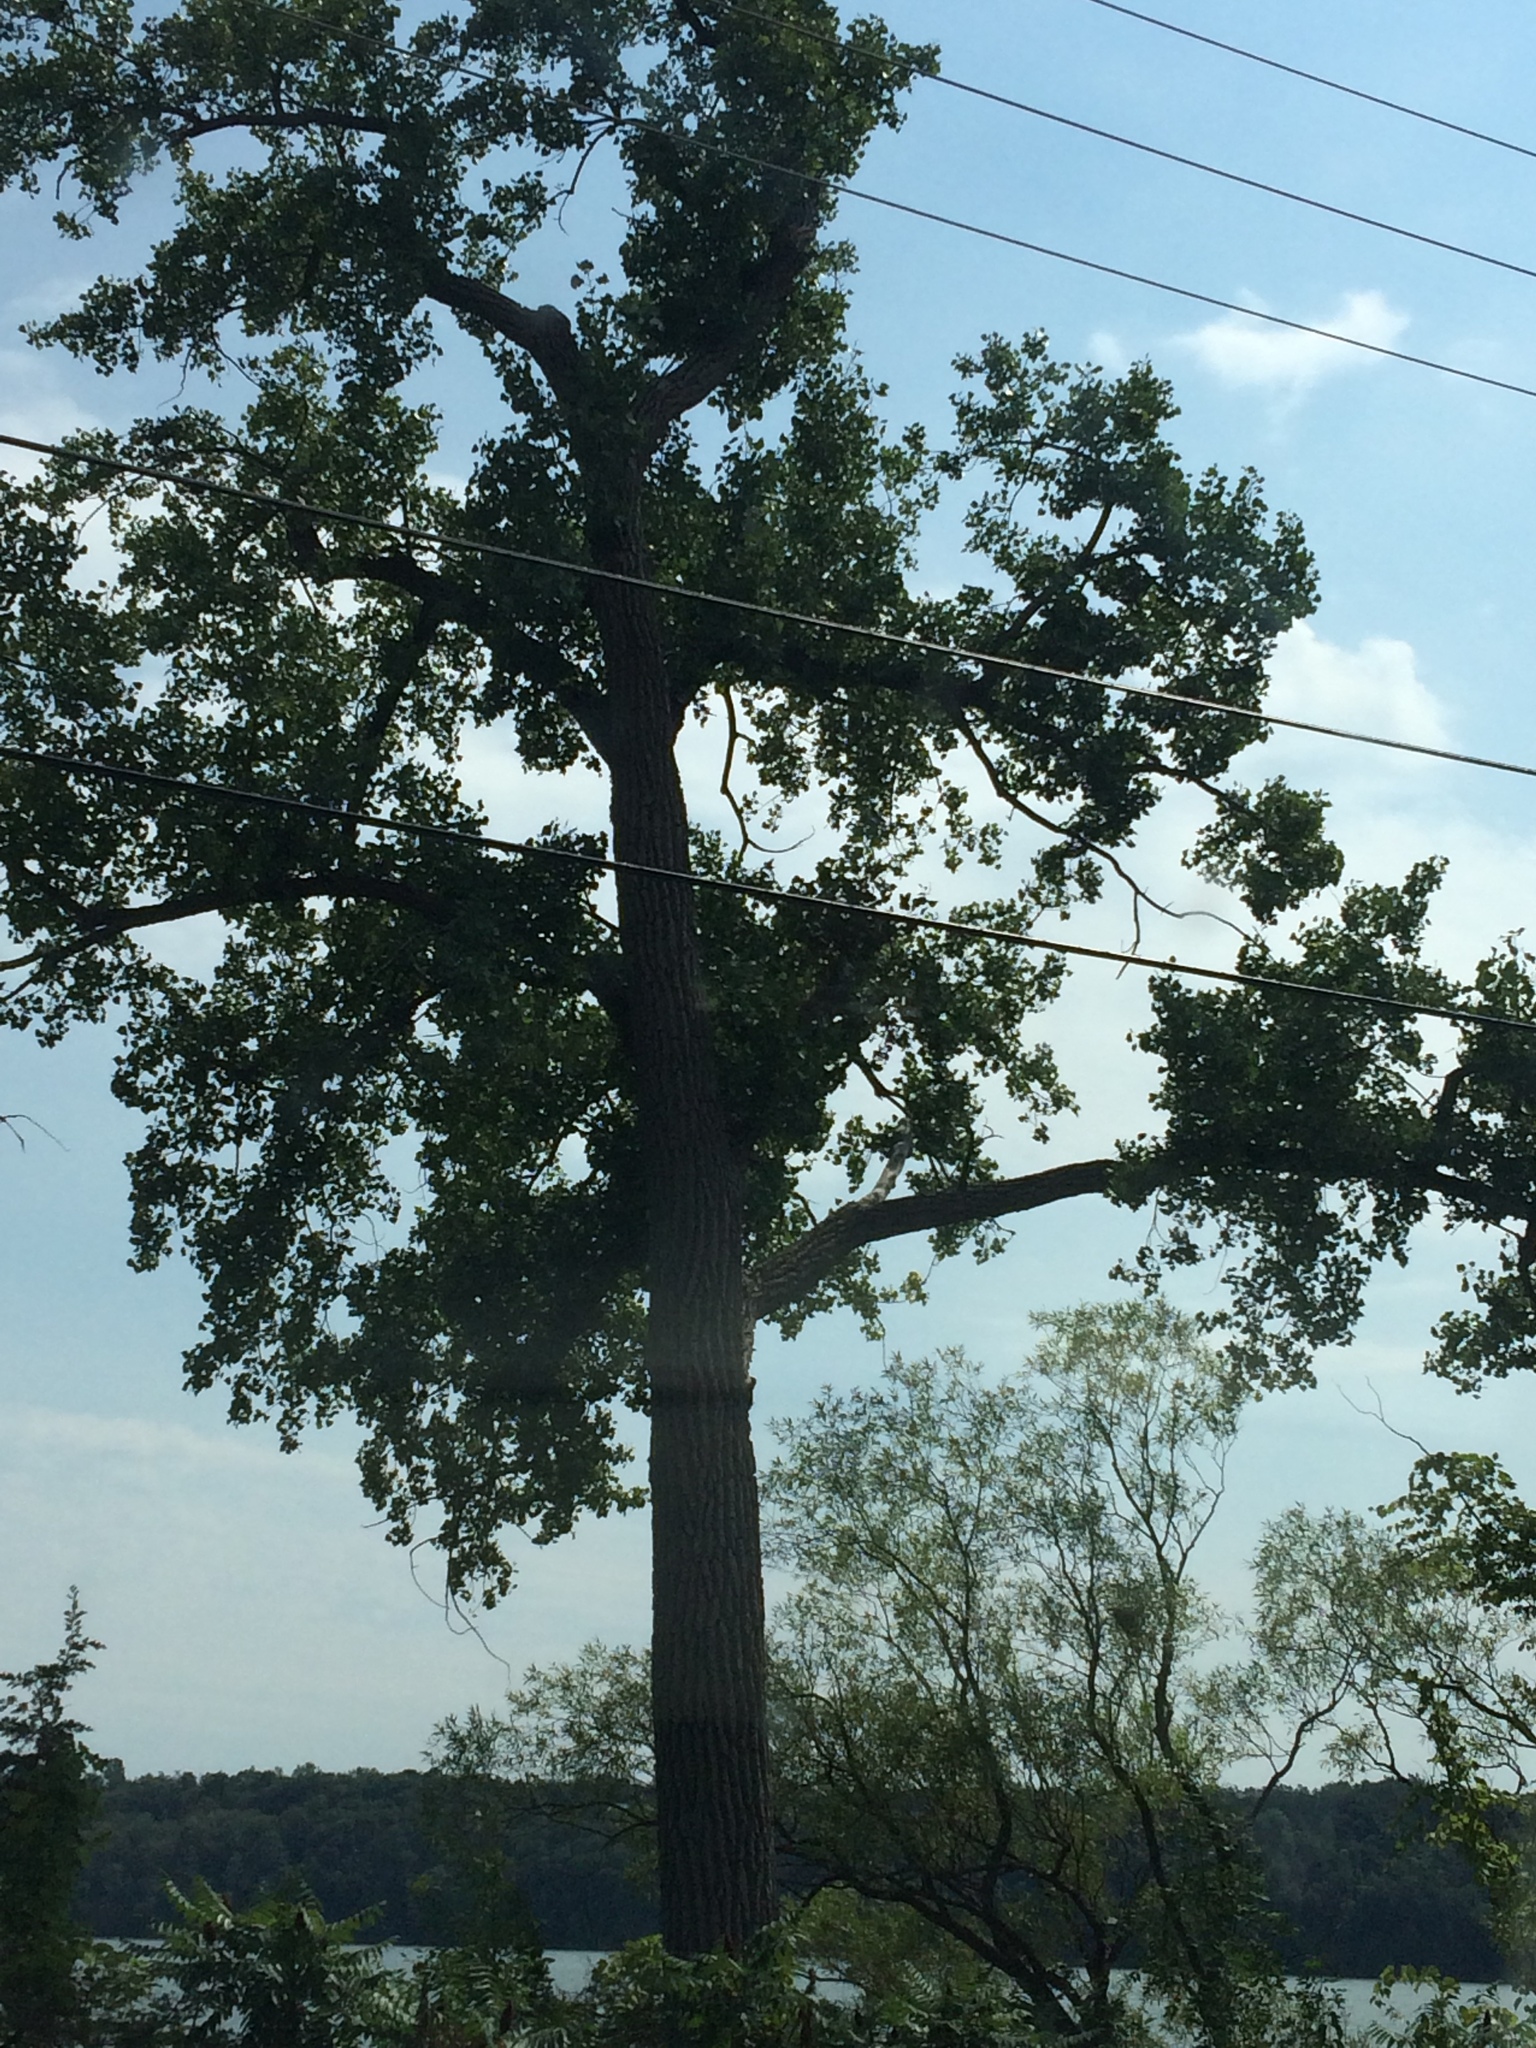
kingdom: Plantae
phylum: Tracheophyta
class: Magnoliopsida
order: Malpighiales
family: Salicaceae
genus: Populus
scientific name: Populus deltoides
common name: Eastern cottonwood
